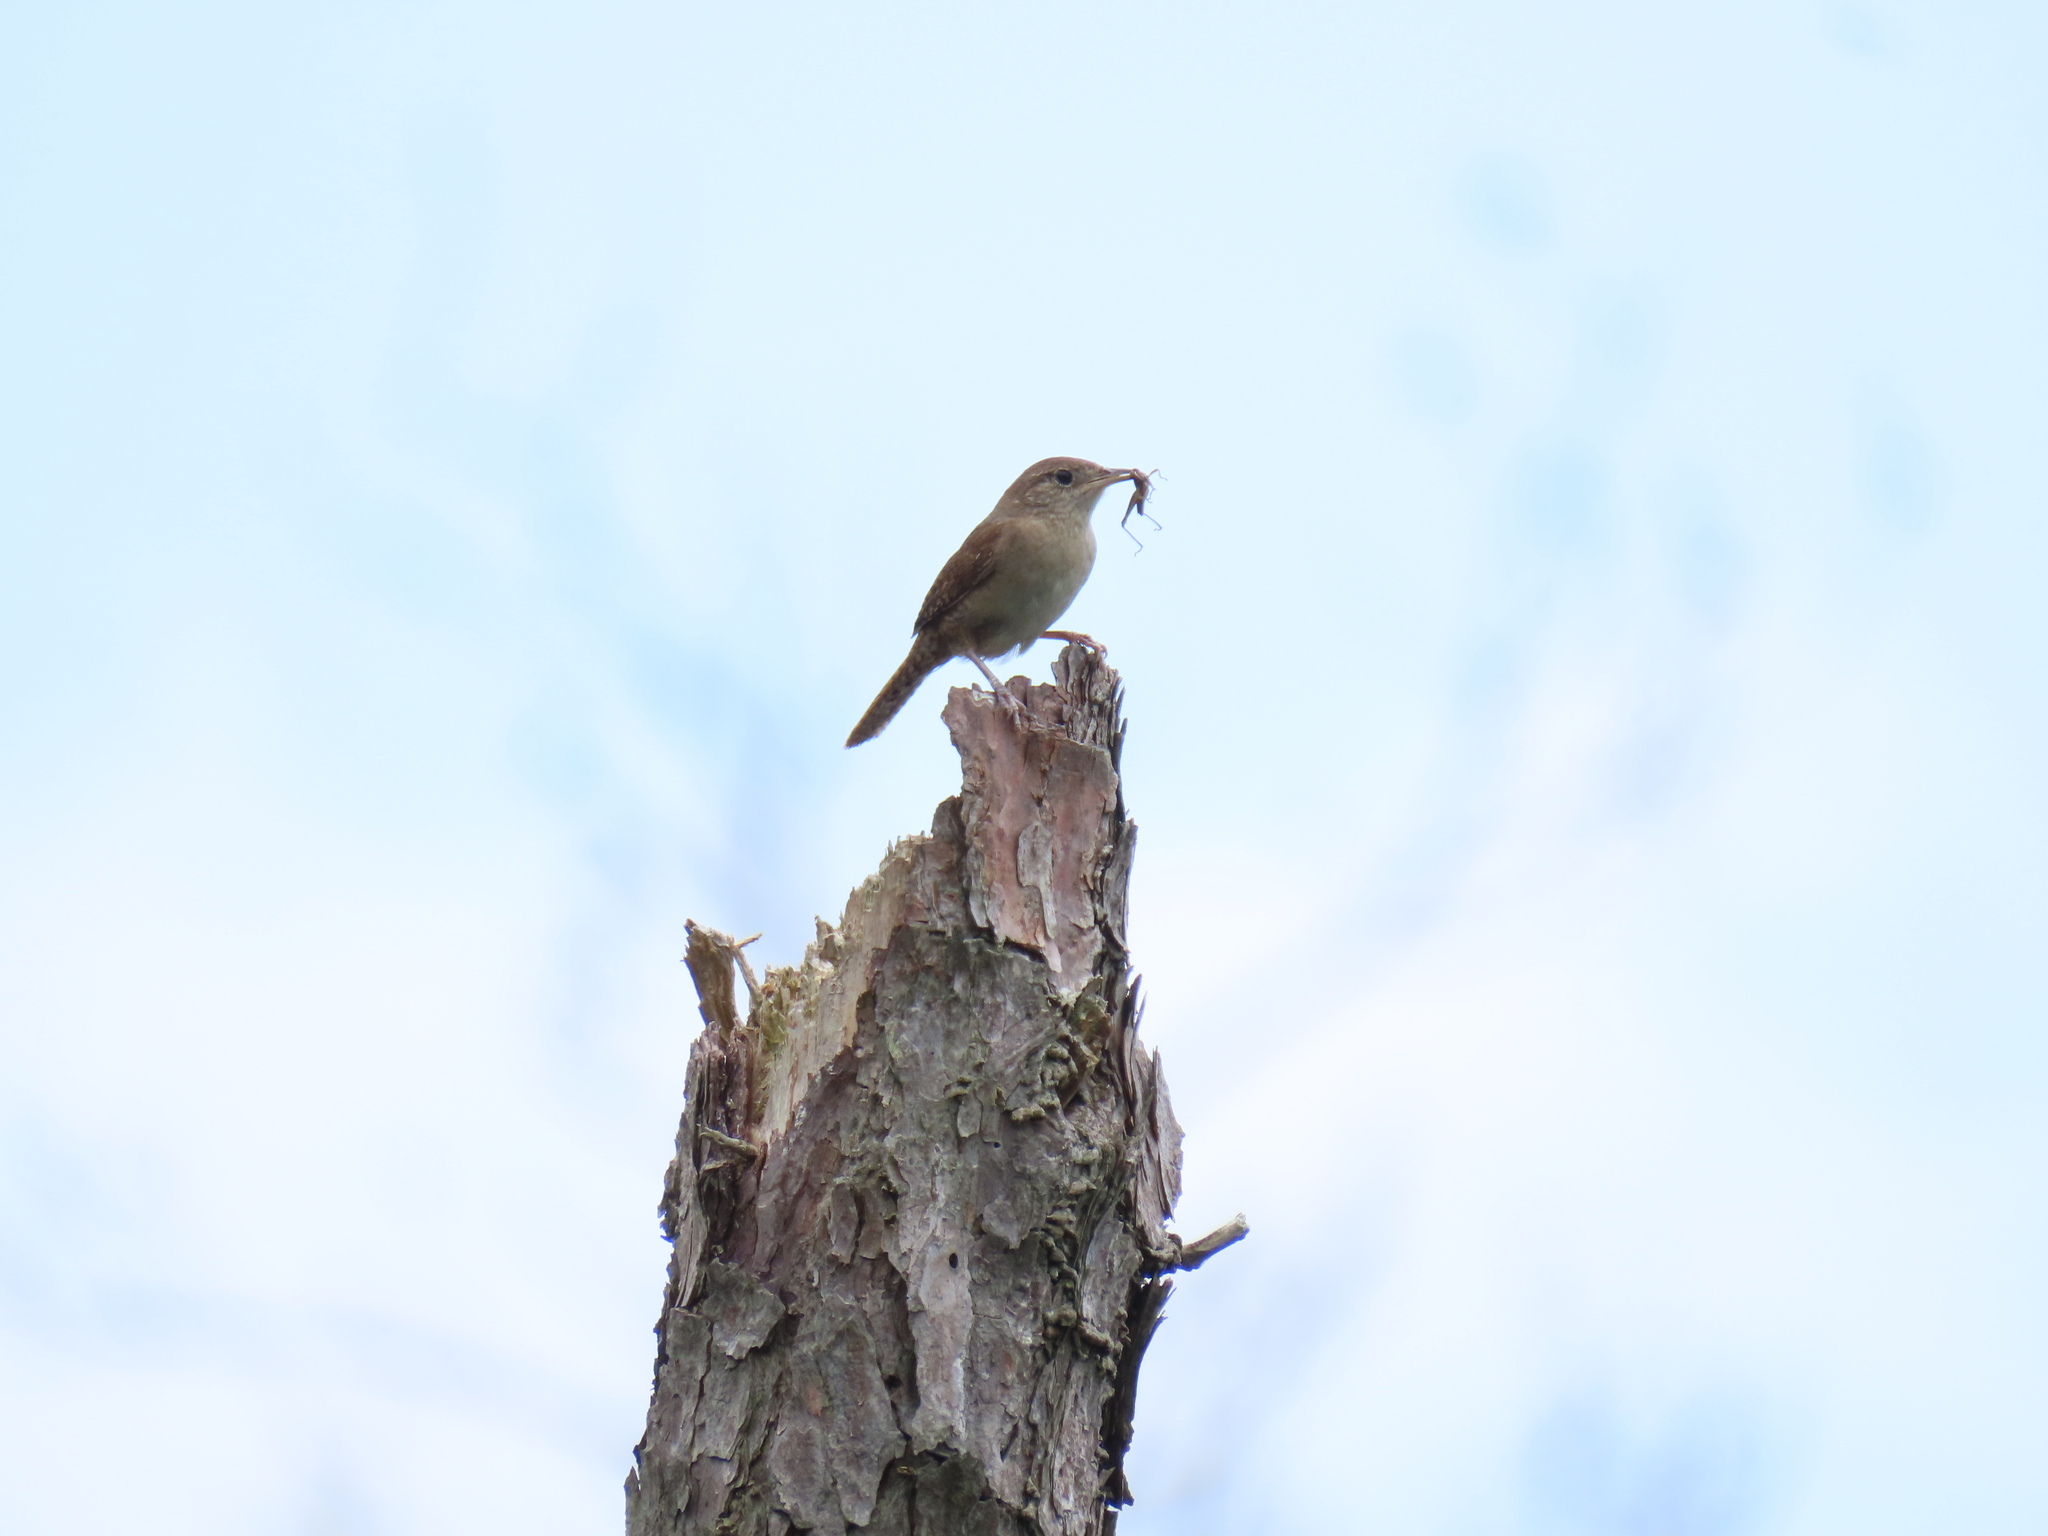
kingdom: Animalia
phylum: Chordata
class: Aves
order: Passeriformes
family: Troglodytidae
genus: Troglodytes
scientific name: Troglodytes aedon
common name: House wren
